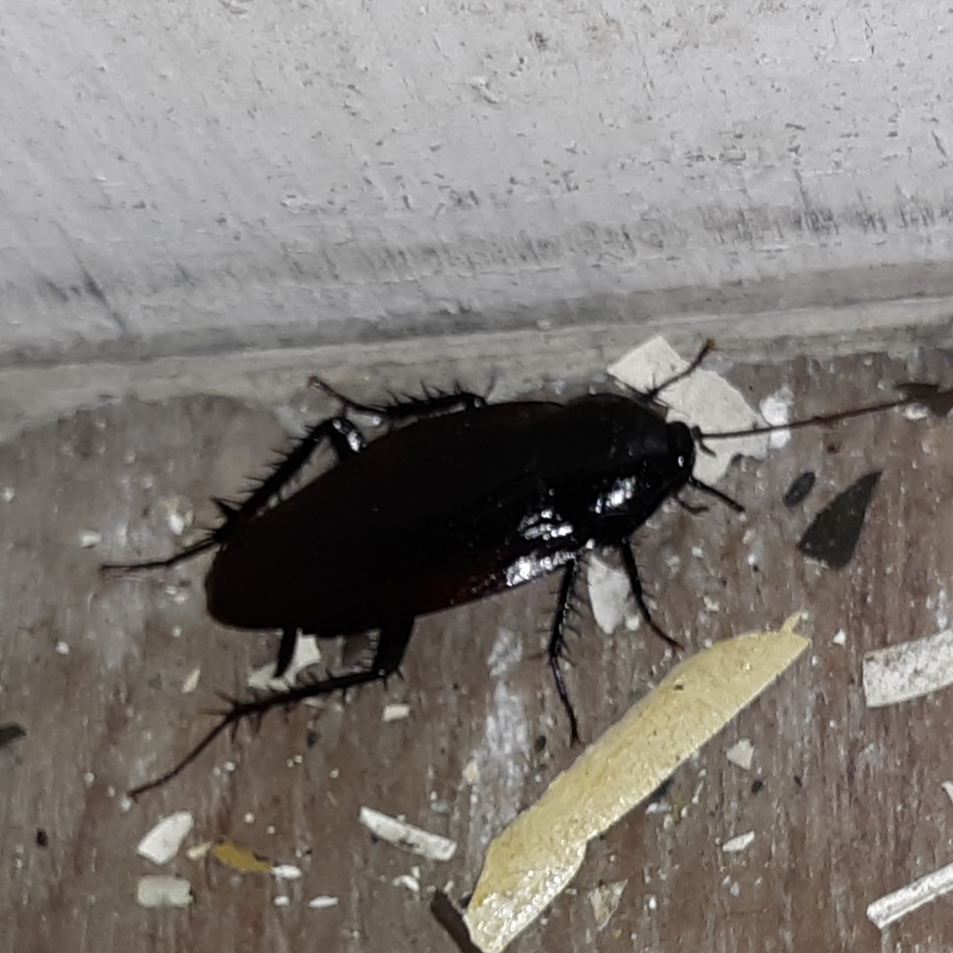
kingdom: Animalia
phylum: Arthropoda
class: Insecta
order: Blattodea
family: Blattidae
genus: Periplaneta
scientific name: Periplaneta fuliginosa
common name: Smokeybrown cockroad
